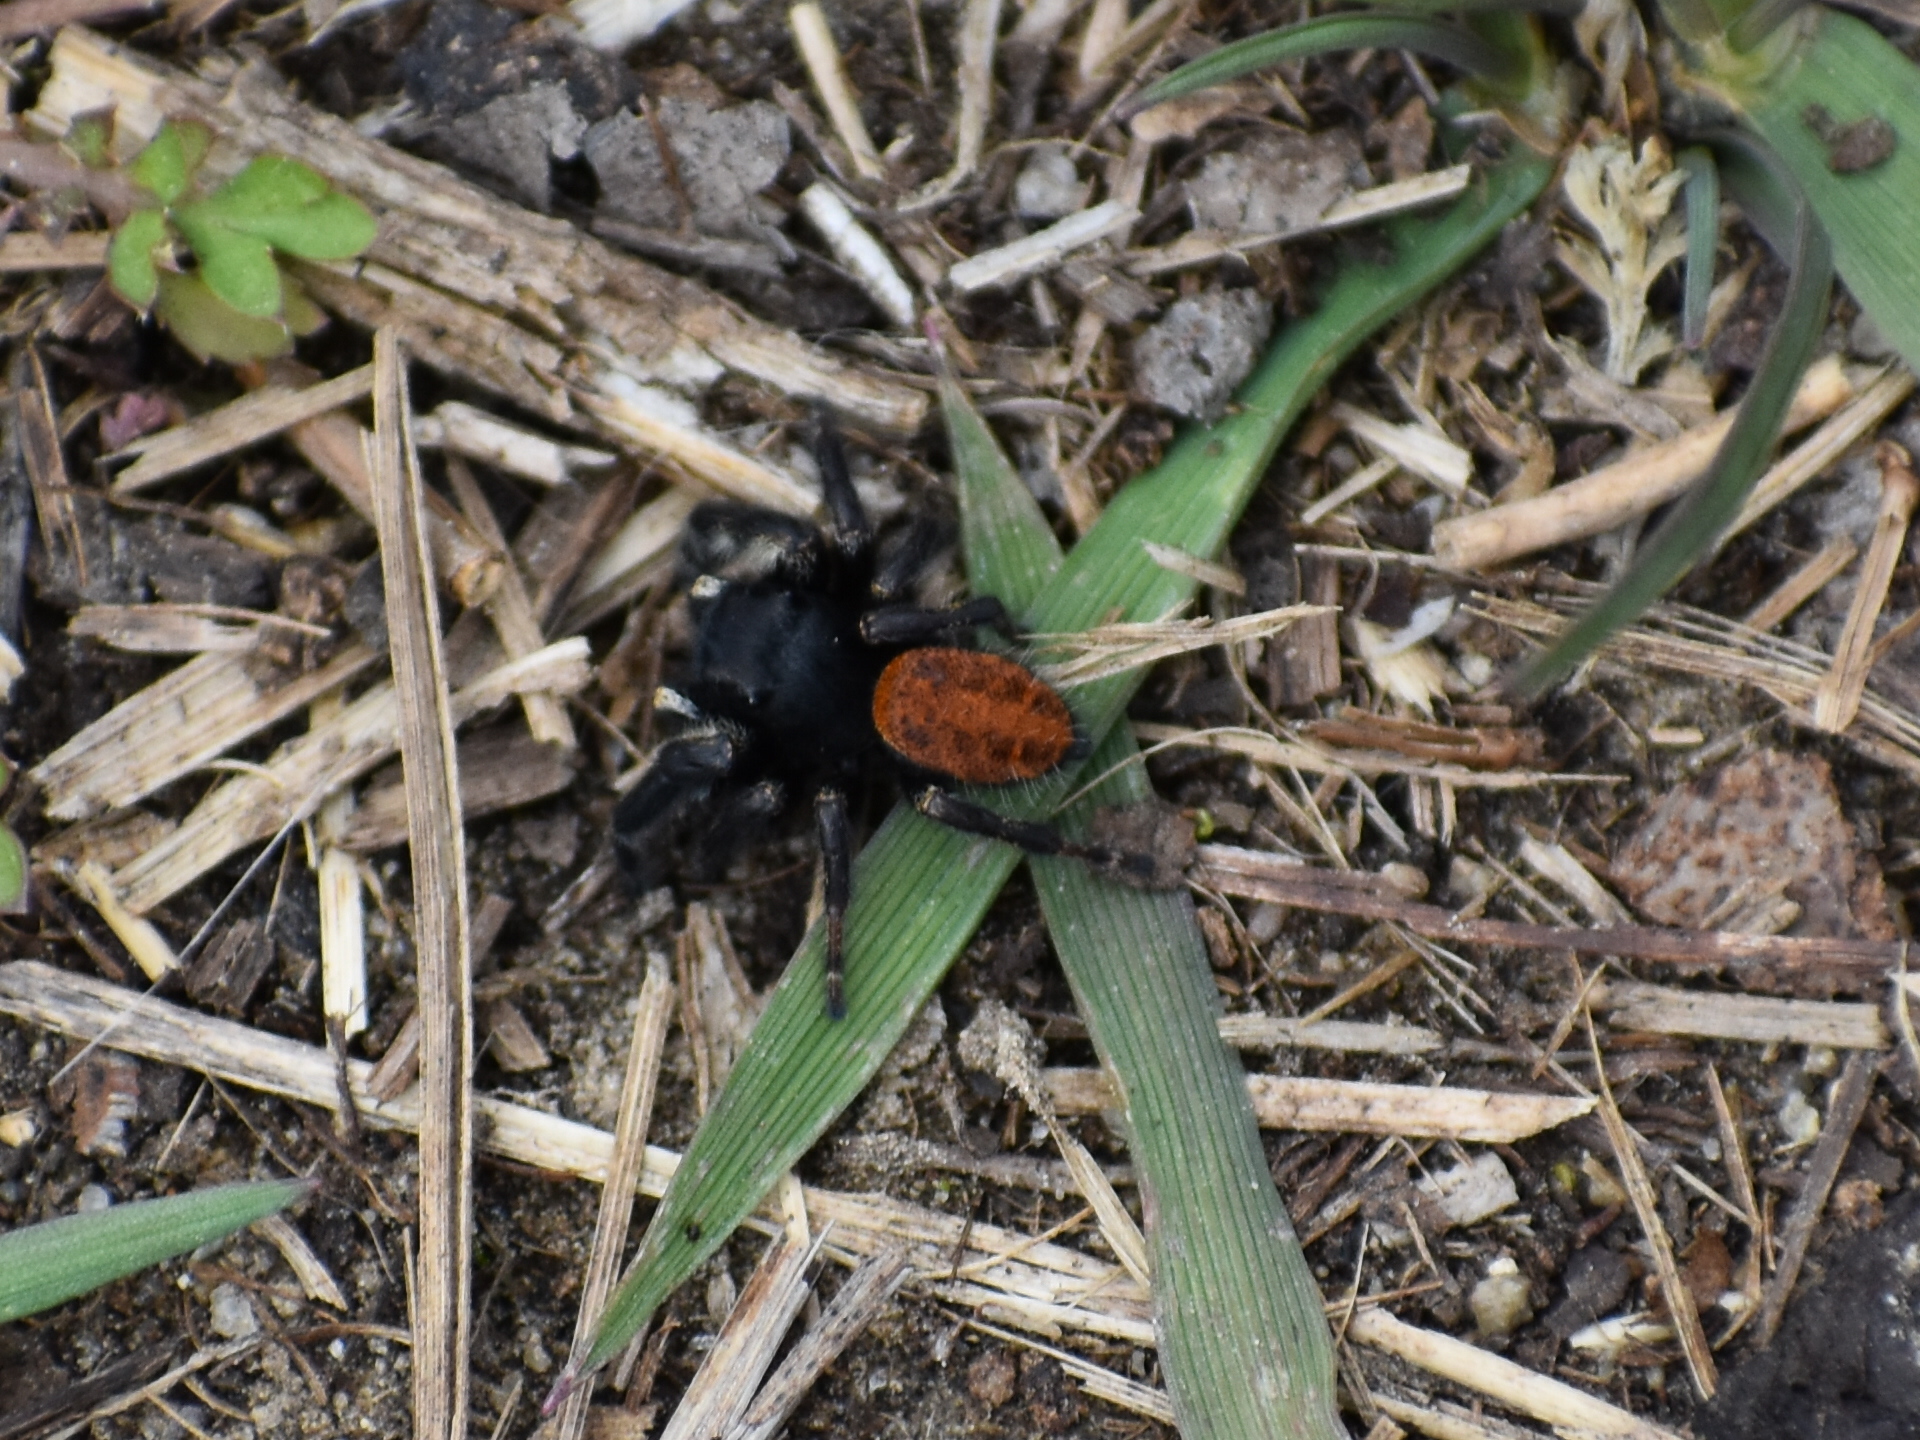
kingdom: Animalia
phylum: Arthropoda
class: Arachnida
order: Araneae
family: Salticidae
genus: Phidippus
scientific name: Phidippus princeps
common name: Grayish jumping spider
